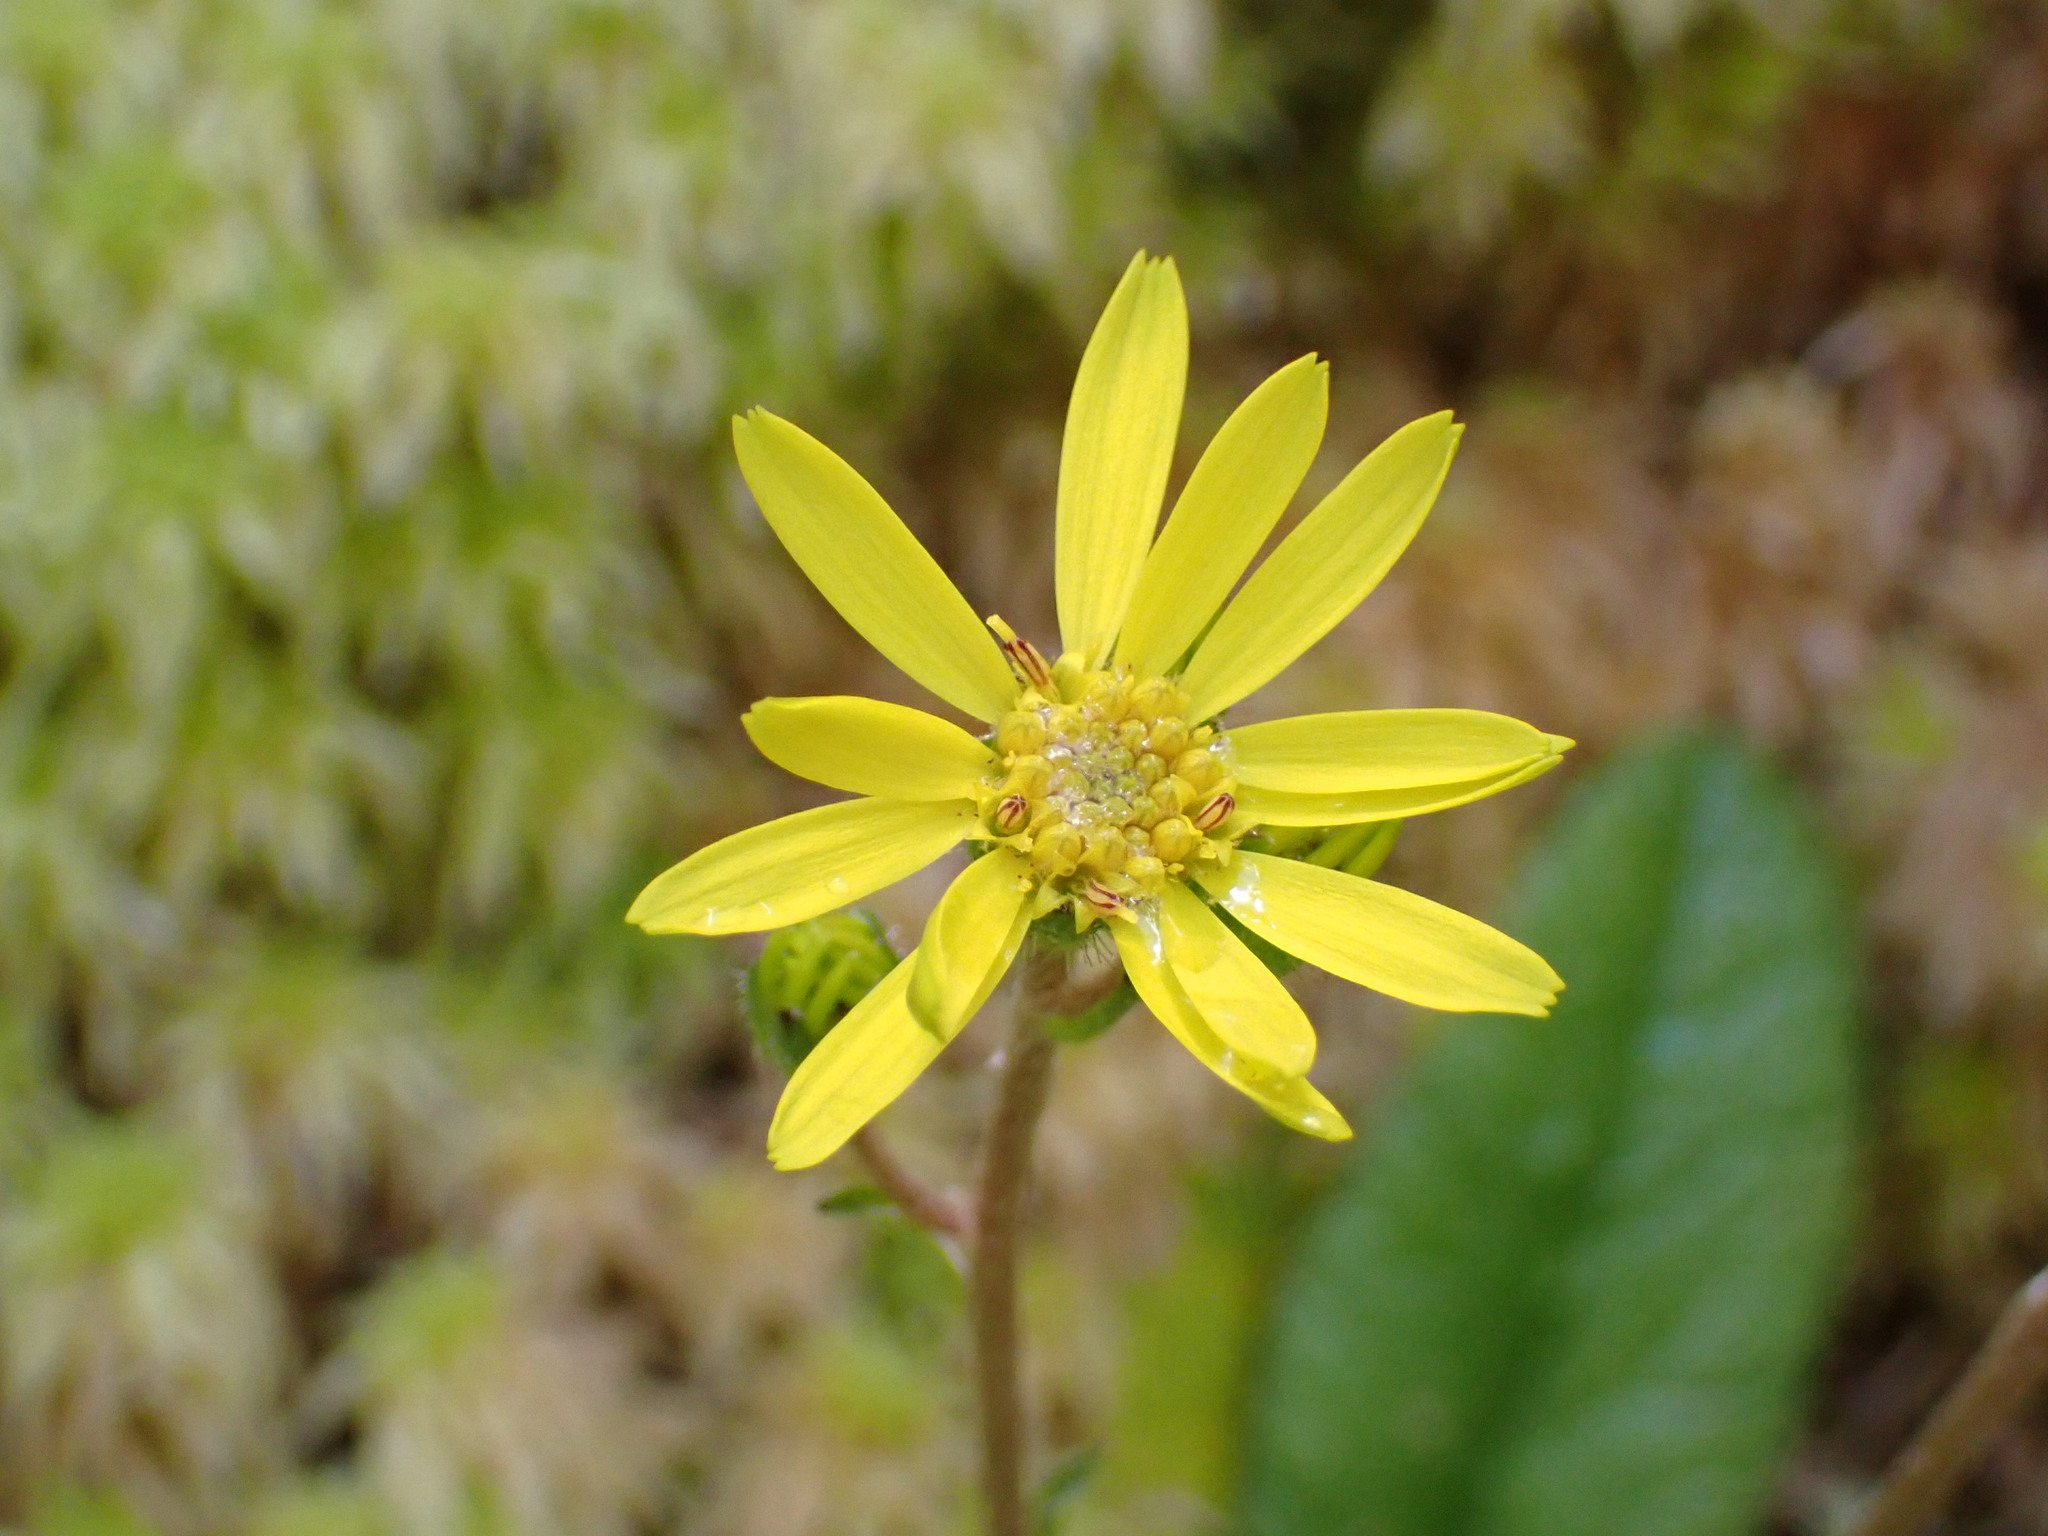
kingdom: Plantae
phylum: Tracheophyta
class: Magnoliopsida
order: Asterales
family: Asteraceae
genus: Brachyglottis
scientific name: Brachyglottis lagopus
